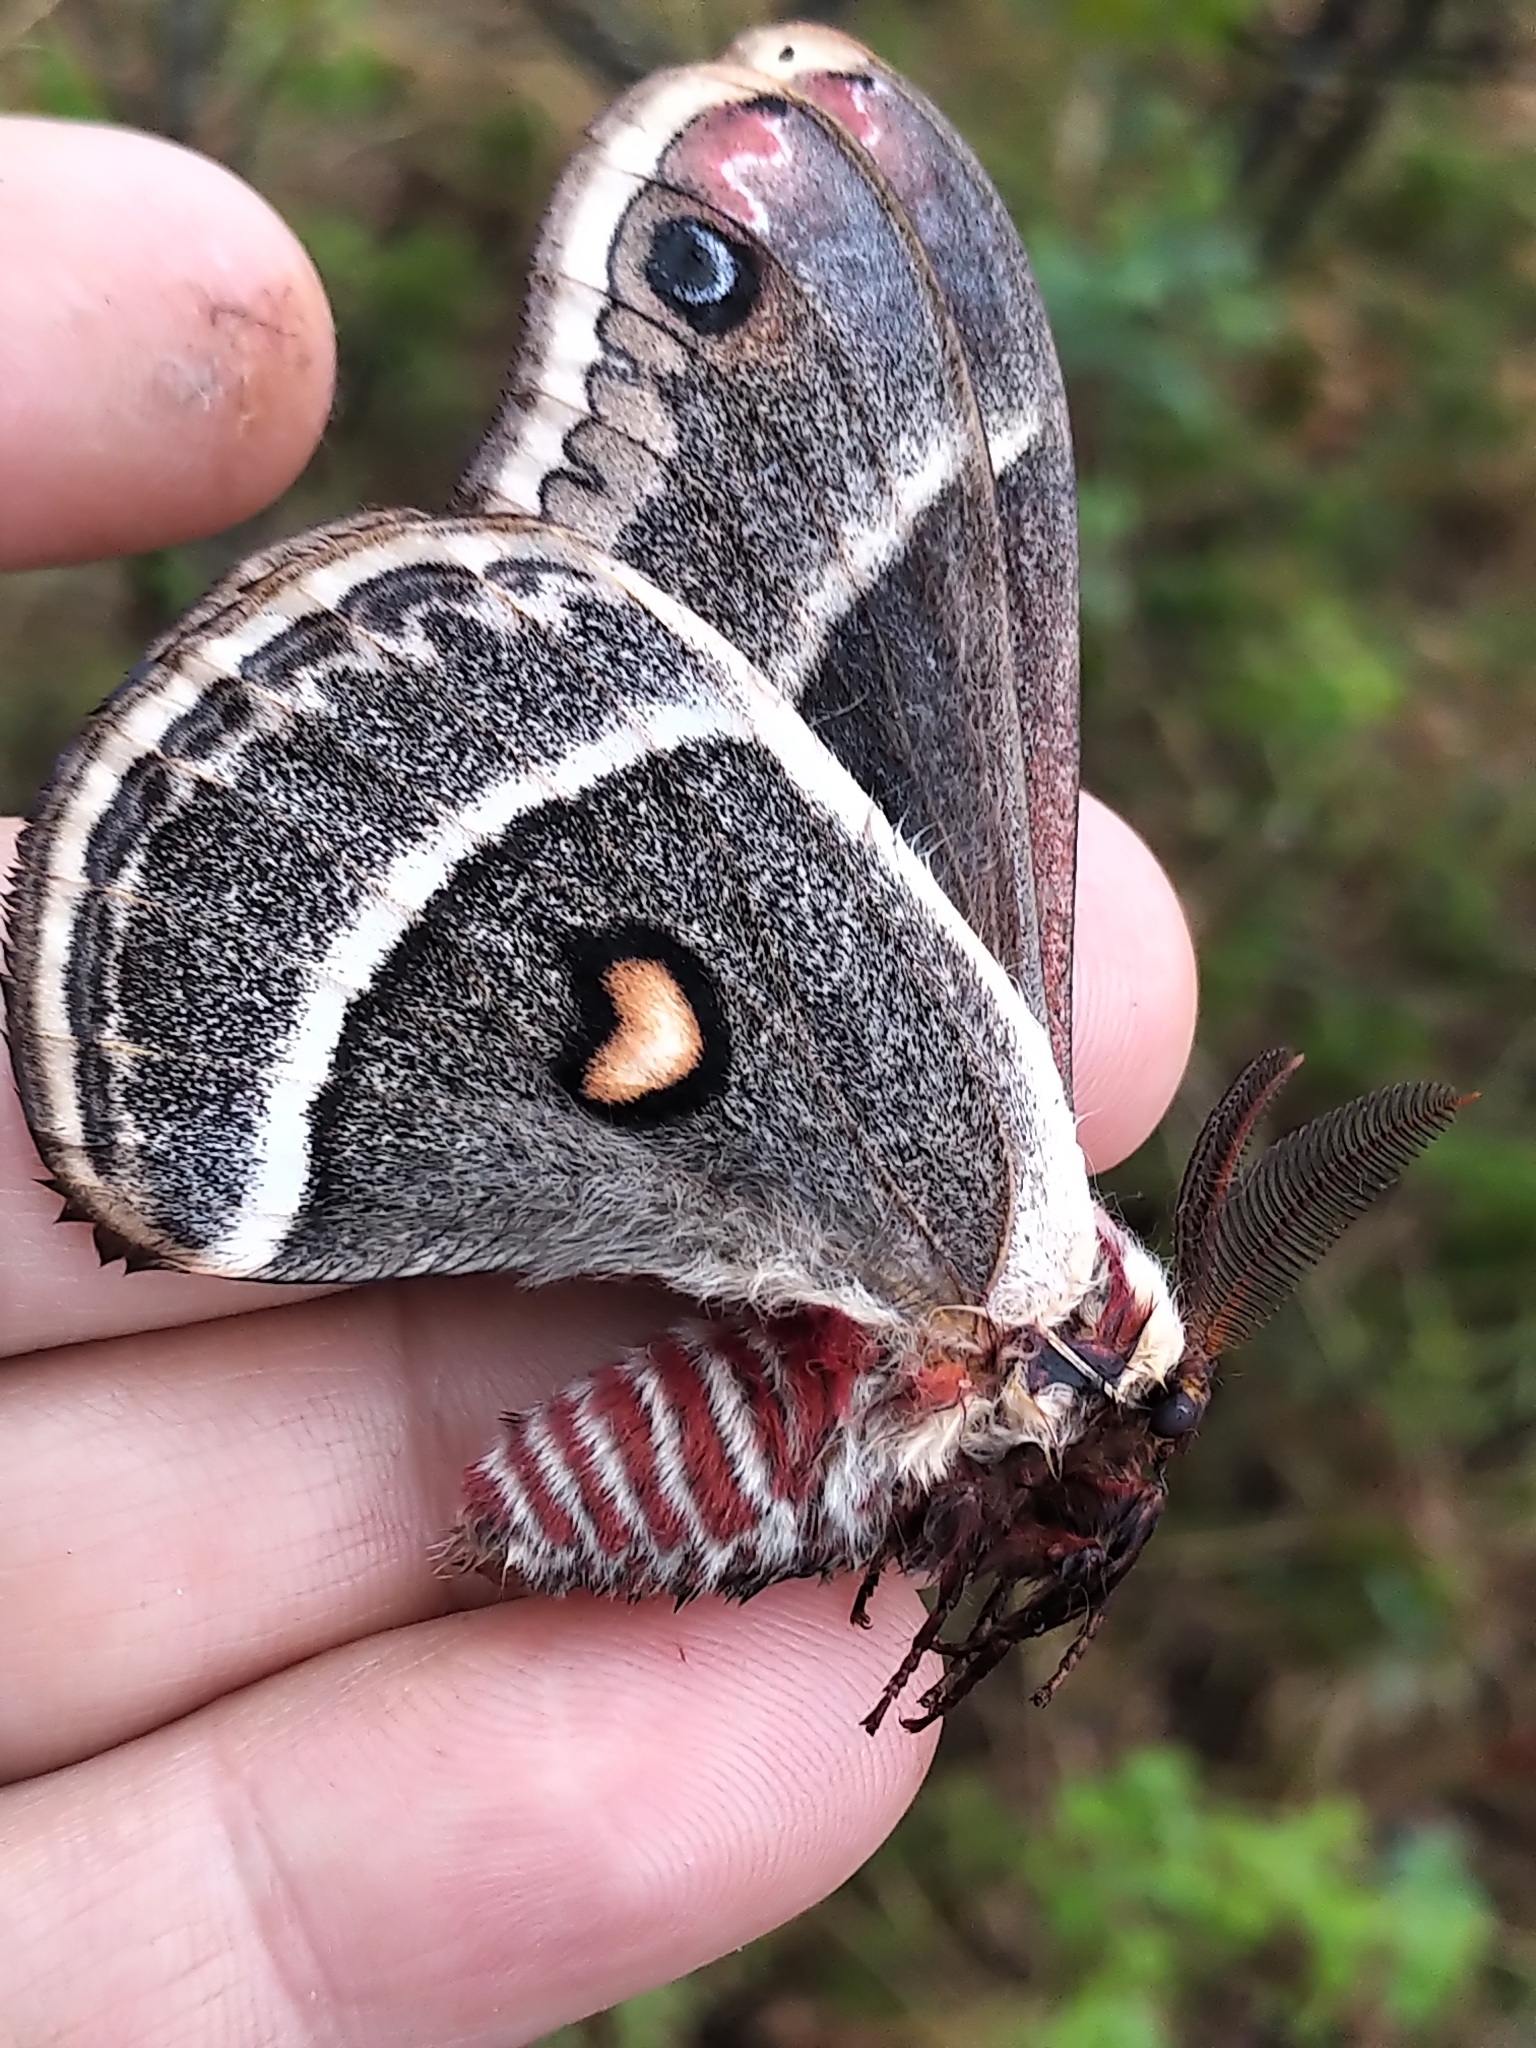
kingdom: Animalia
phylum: Arthropoda
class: Insecta
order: Lepidoptera
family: Saturniidae
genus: Hyalophora
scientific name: Hyalophora gloveri
